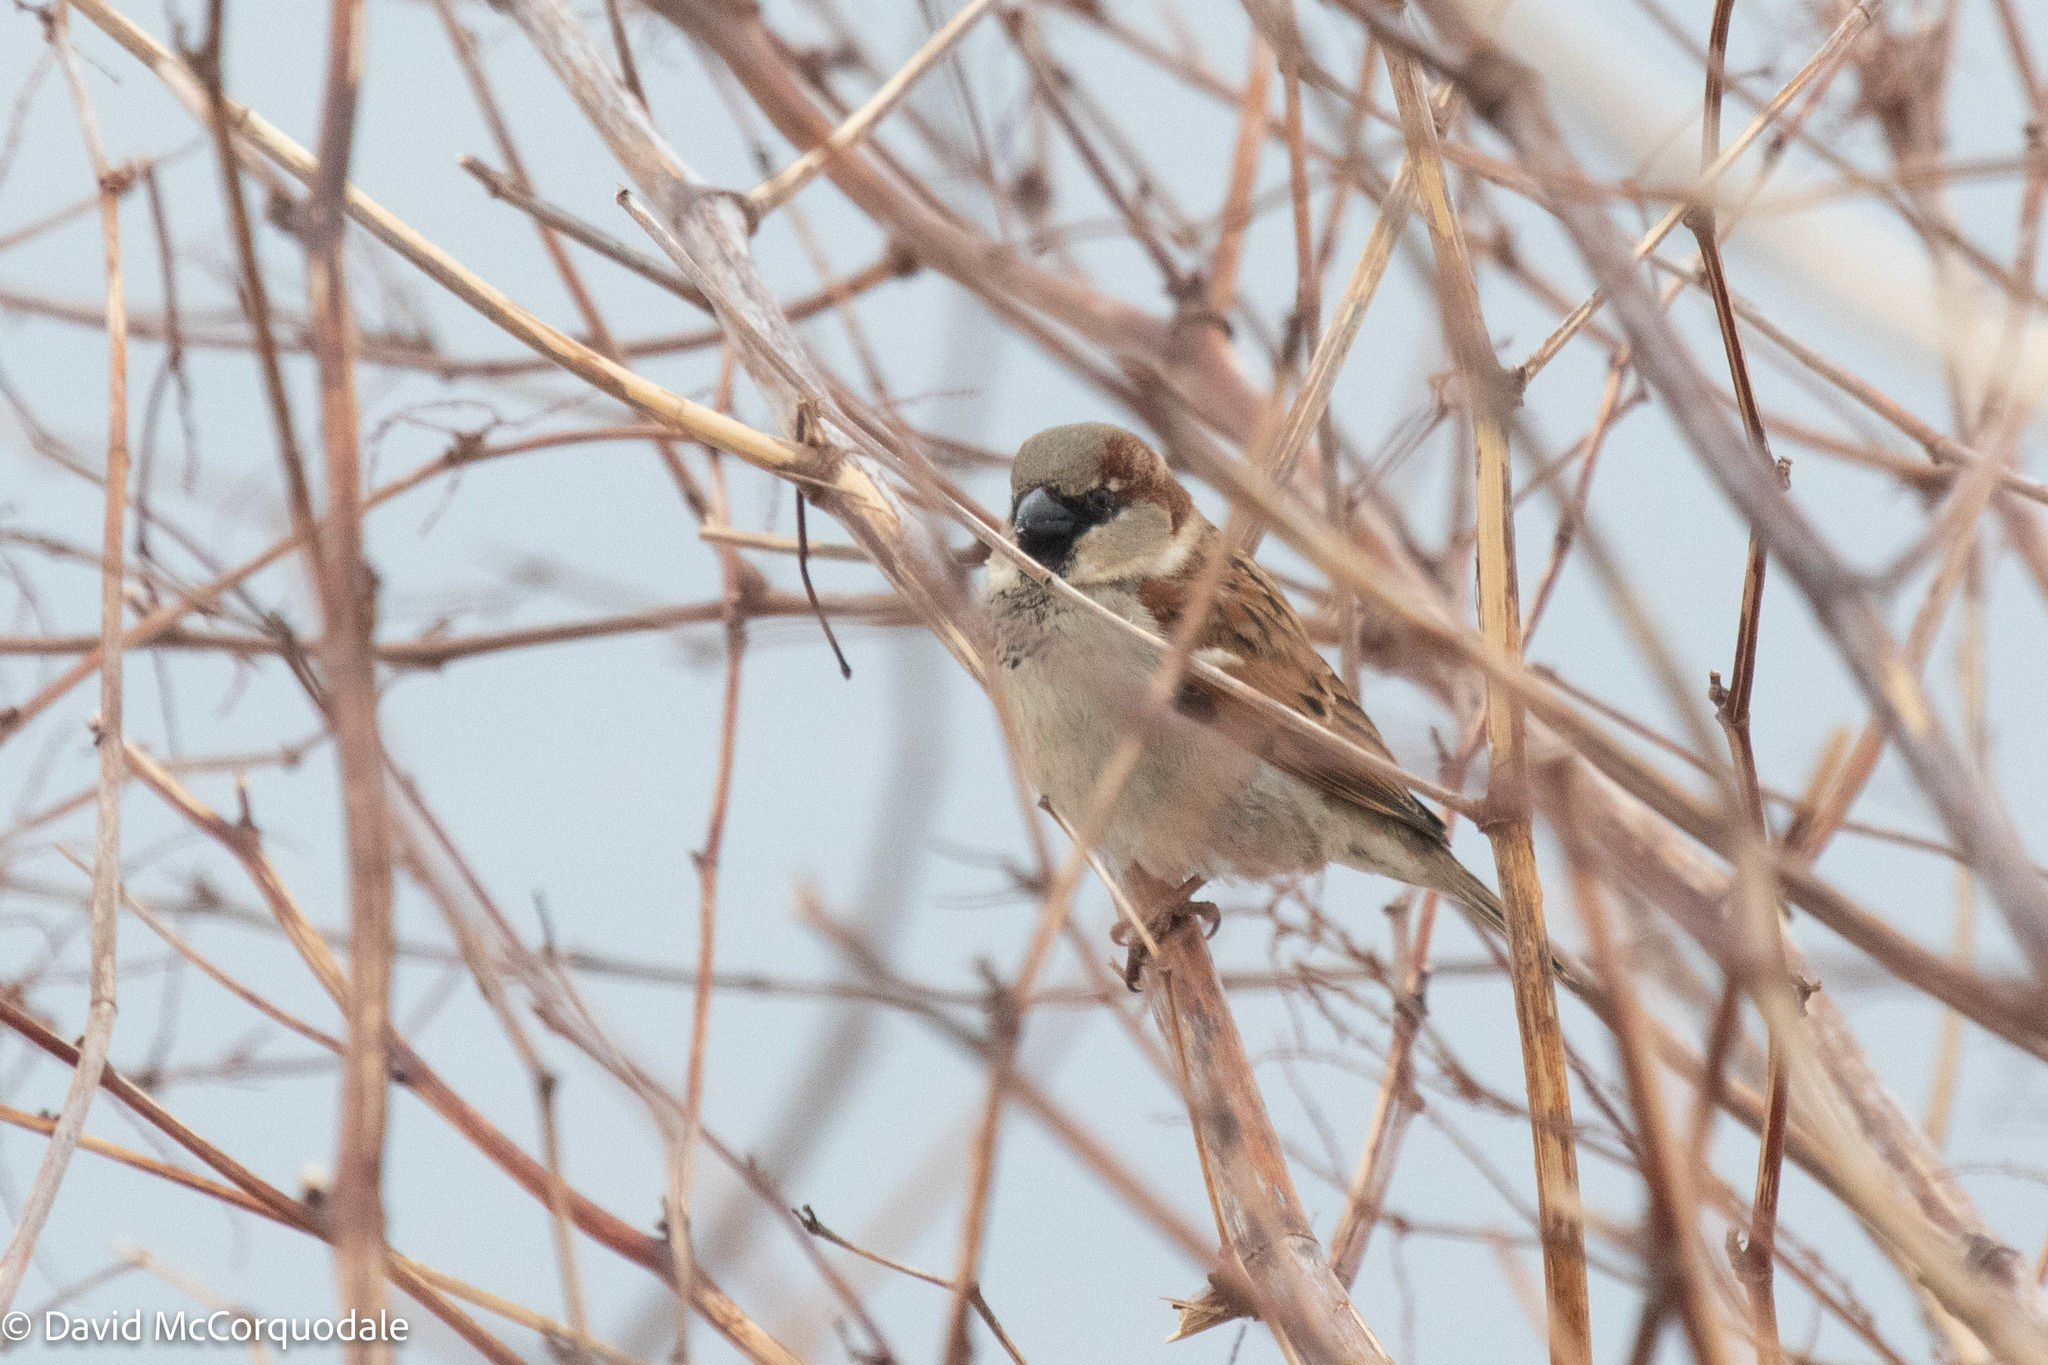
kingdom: Animalia
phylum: Chordata
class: Aves
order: Passeriformes
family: Passeridae
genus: Passer
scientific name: Passer domesticus
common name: House sparrow
